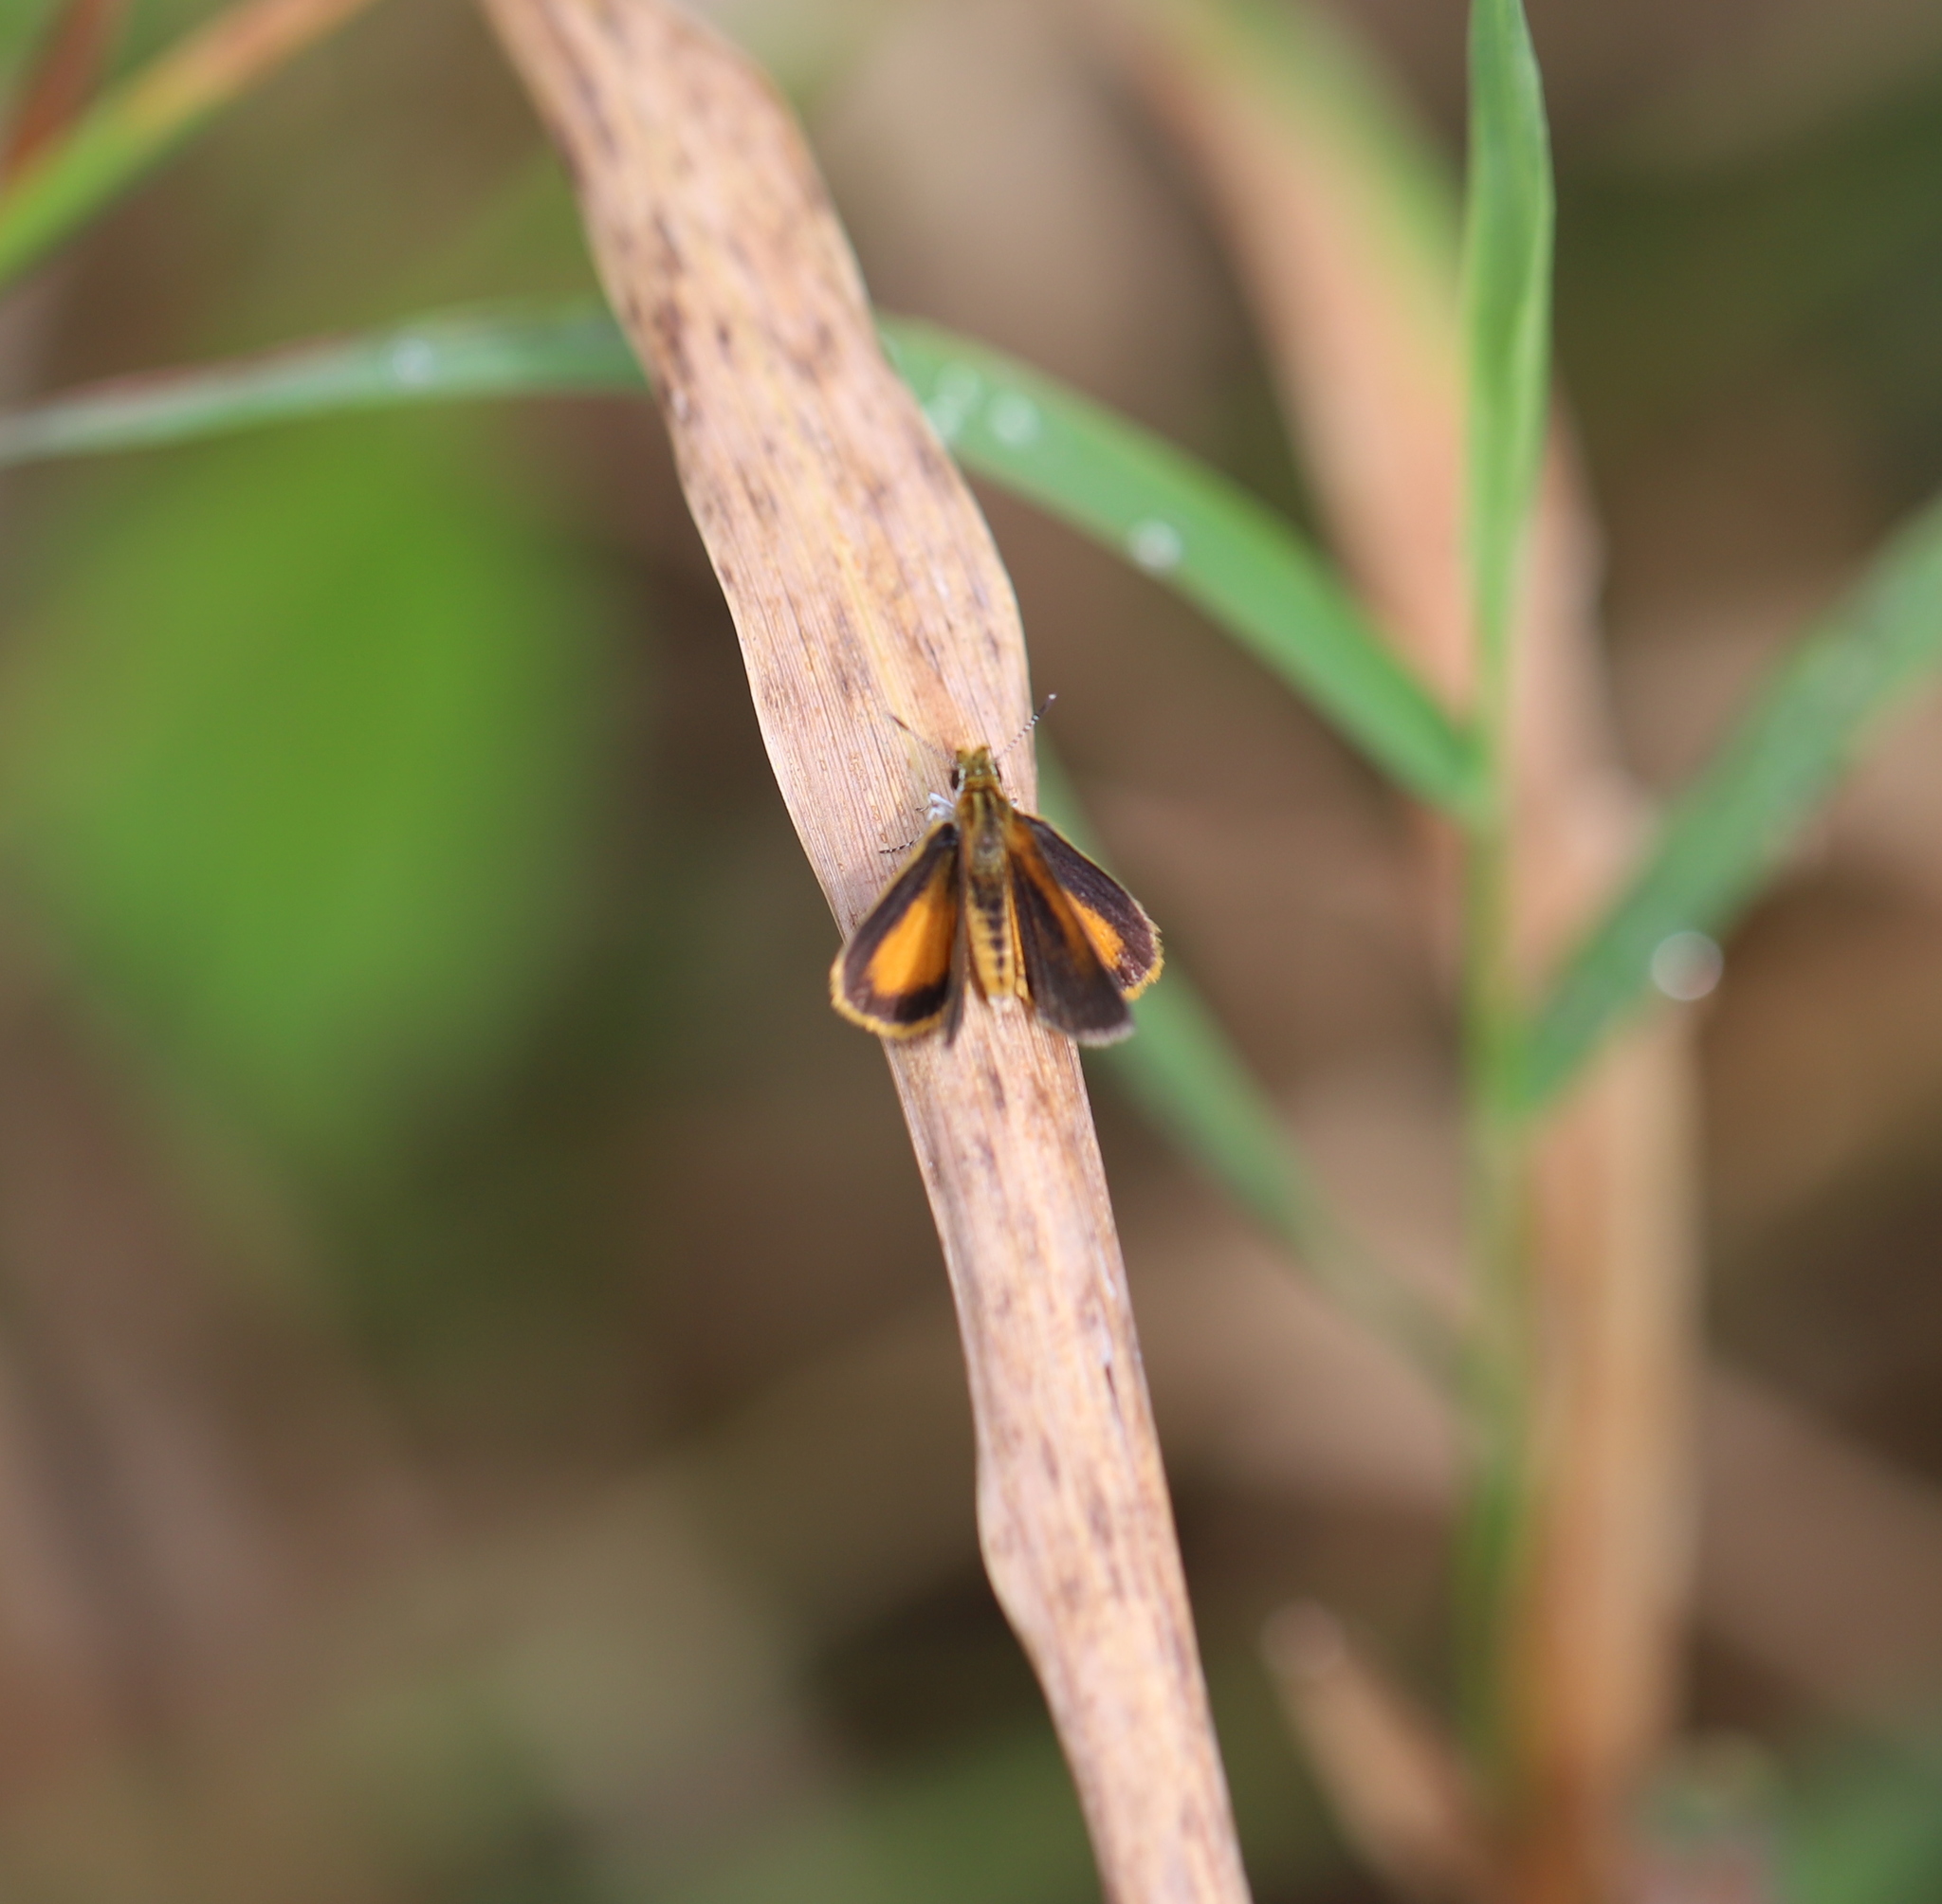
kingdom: Animalia
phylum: Arthropoda
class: Insecta
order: Lepidoptera
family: Hesperiidae
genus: Ancyloxypha
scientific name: Ancyloxypha numitor
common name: Least skipper
